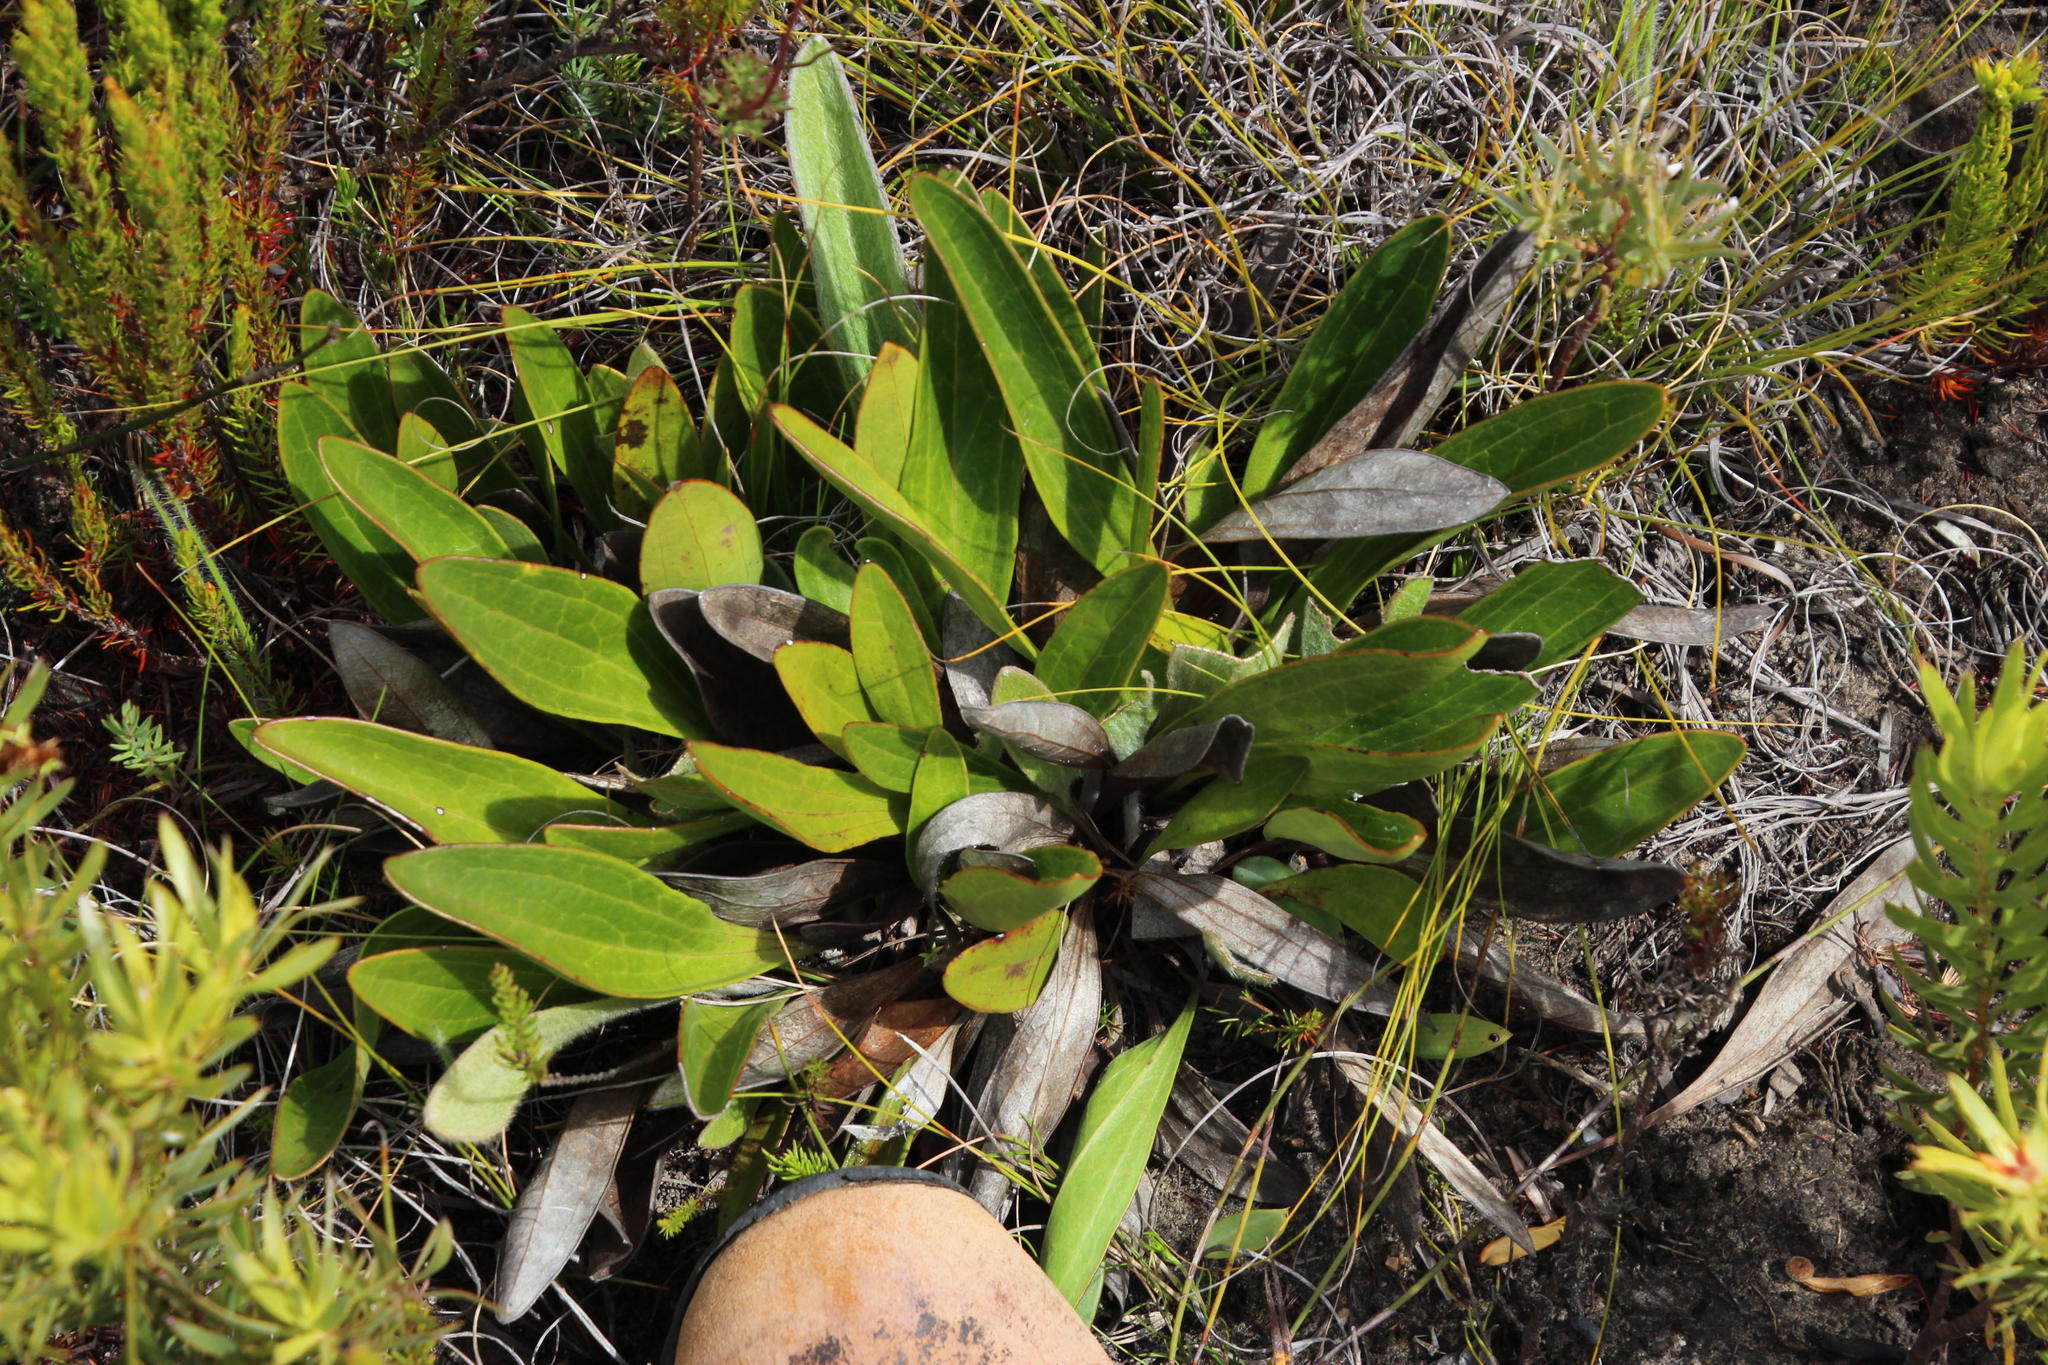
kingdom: Plantae
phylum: Tracheophyta
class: Magnoliopsida
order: Asterales
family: Asteraceae
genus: Mairia
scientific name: Mairia coriacea
